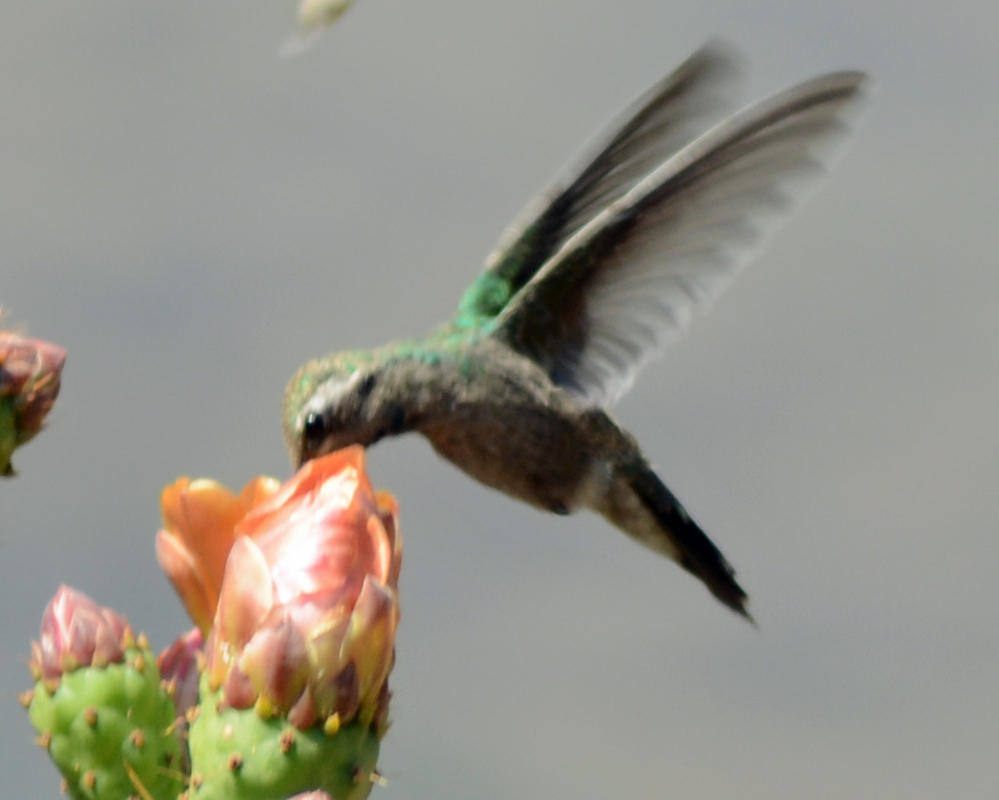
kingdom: Animalia
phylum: Chordata
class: Aves
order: Apodiformes
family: Trochilidae
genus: Cynanthus
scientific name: Cynanthus latirostris
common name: Broad-billed hummingbird
